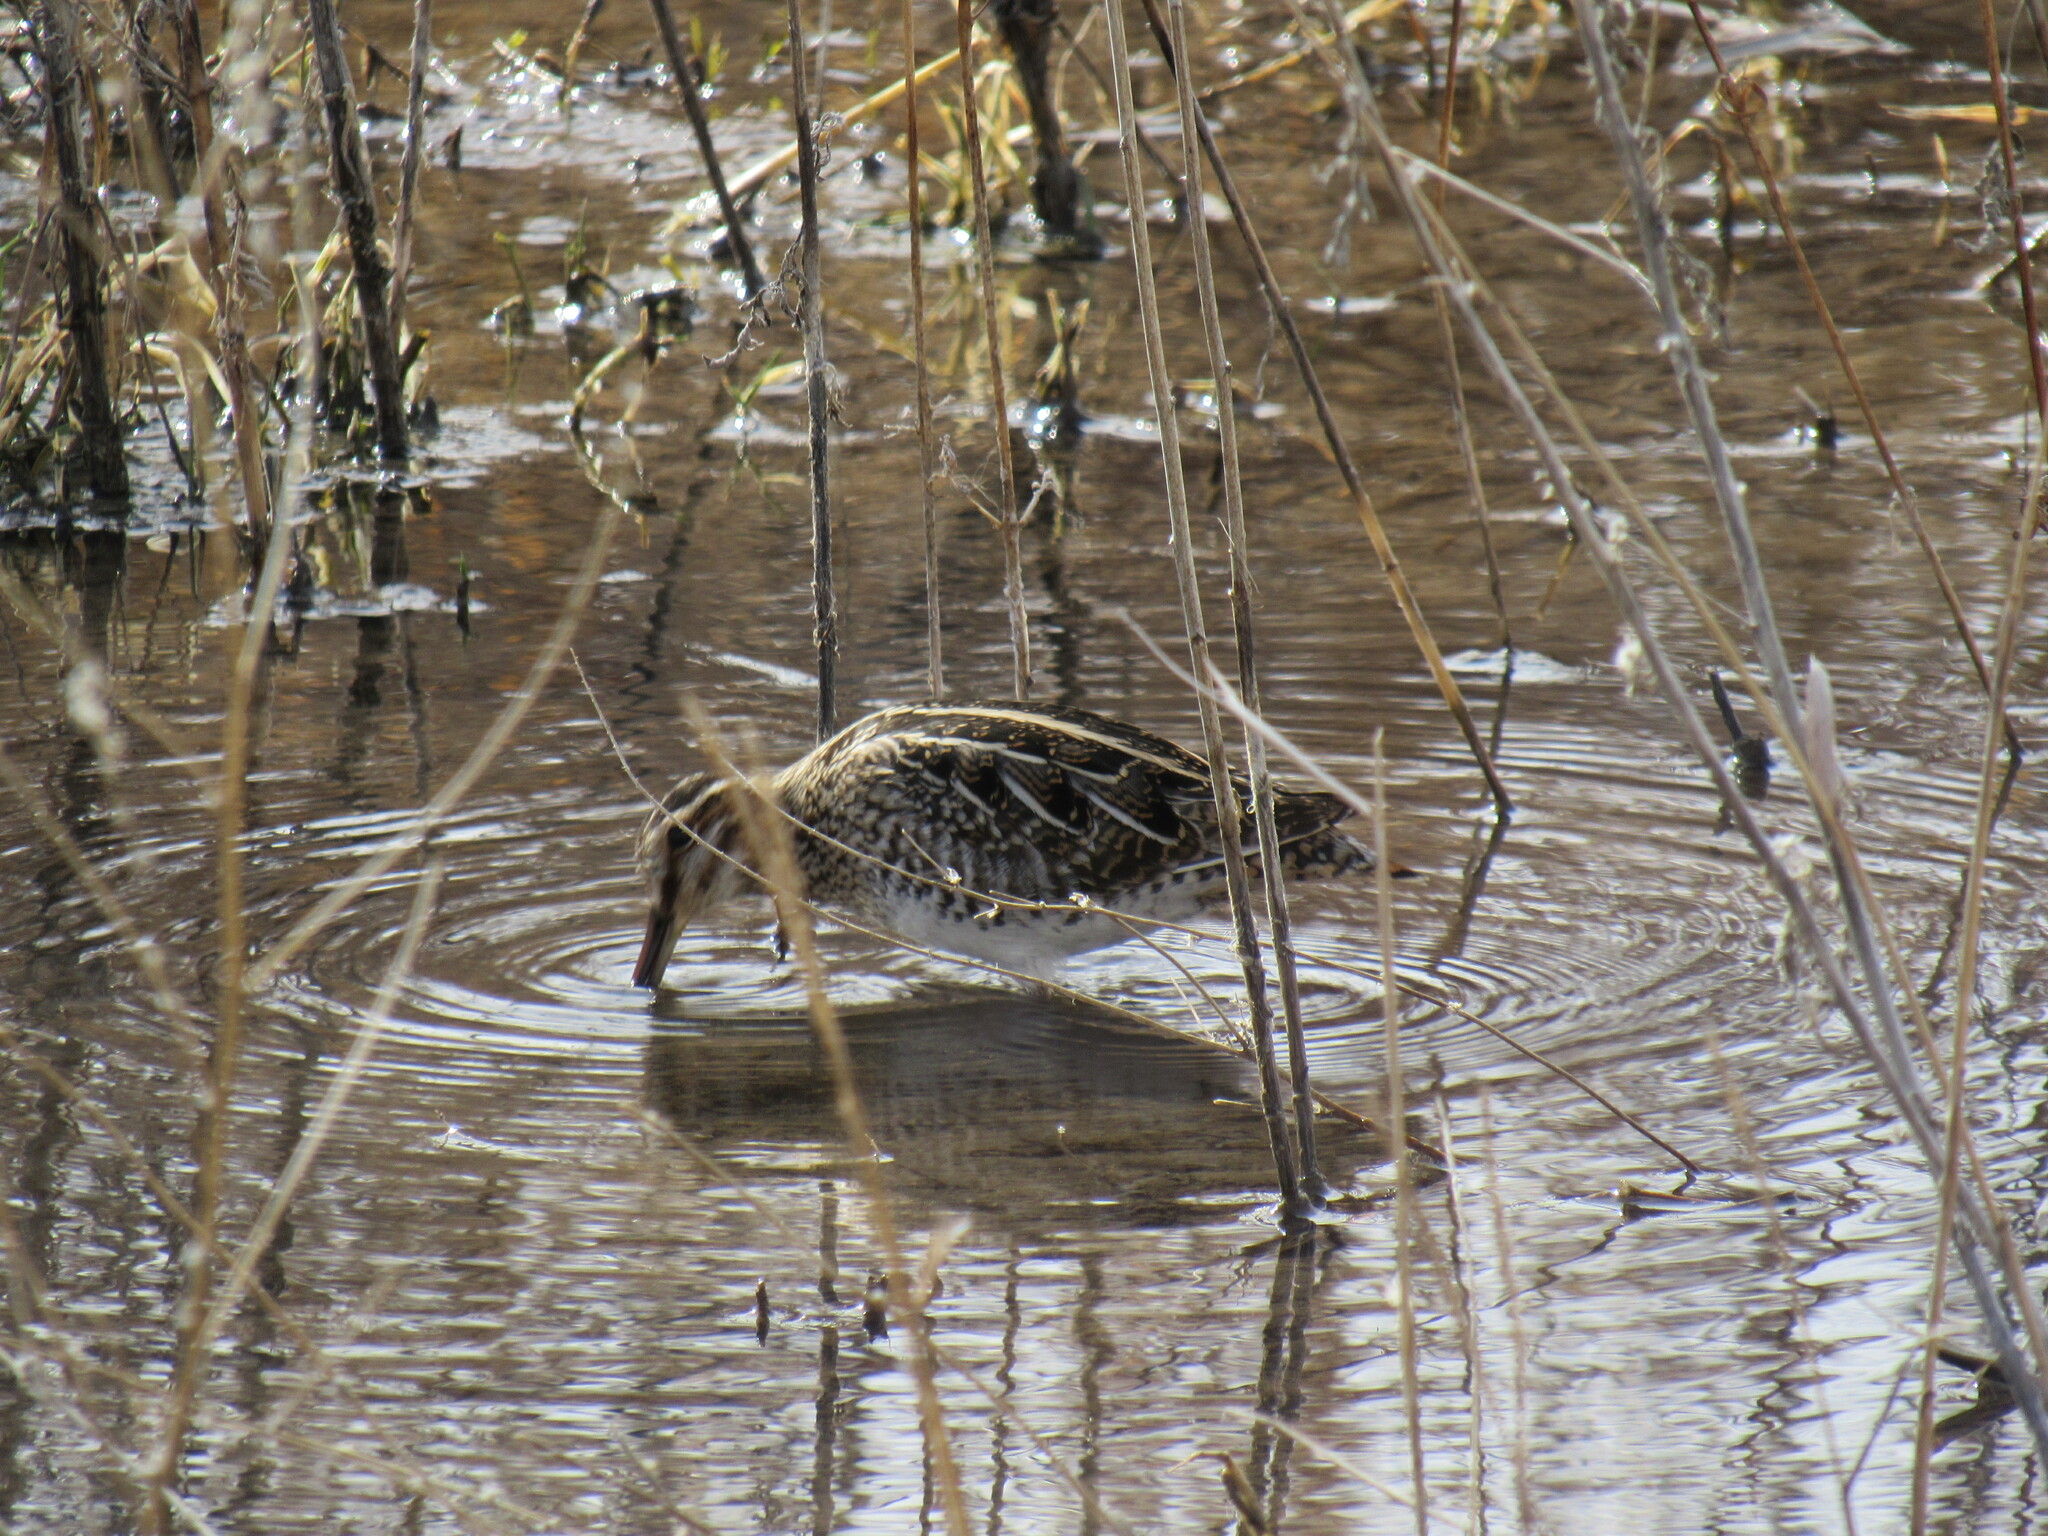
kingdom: Animalia
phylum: Chordata
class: Aves
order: Charadriiformes
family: Scolopacidae
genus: Gallinago
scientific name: Gallinago delicata
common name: Wilson's snipe
